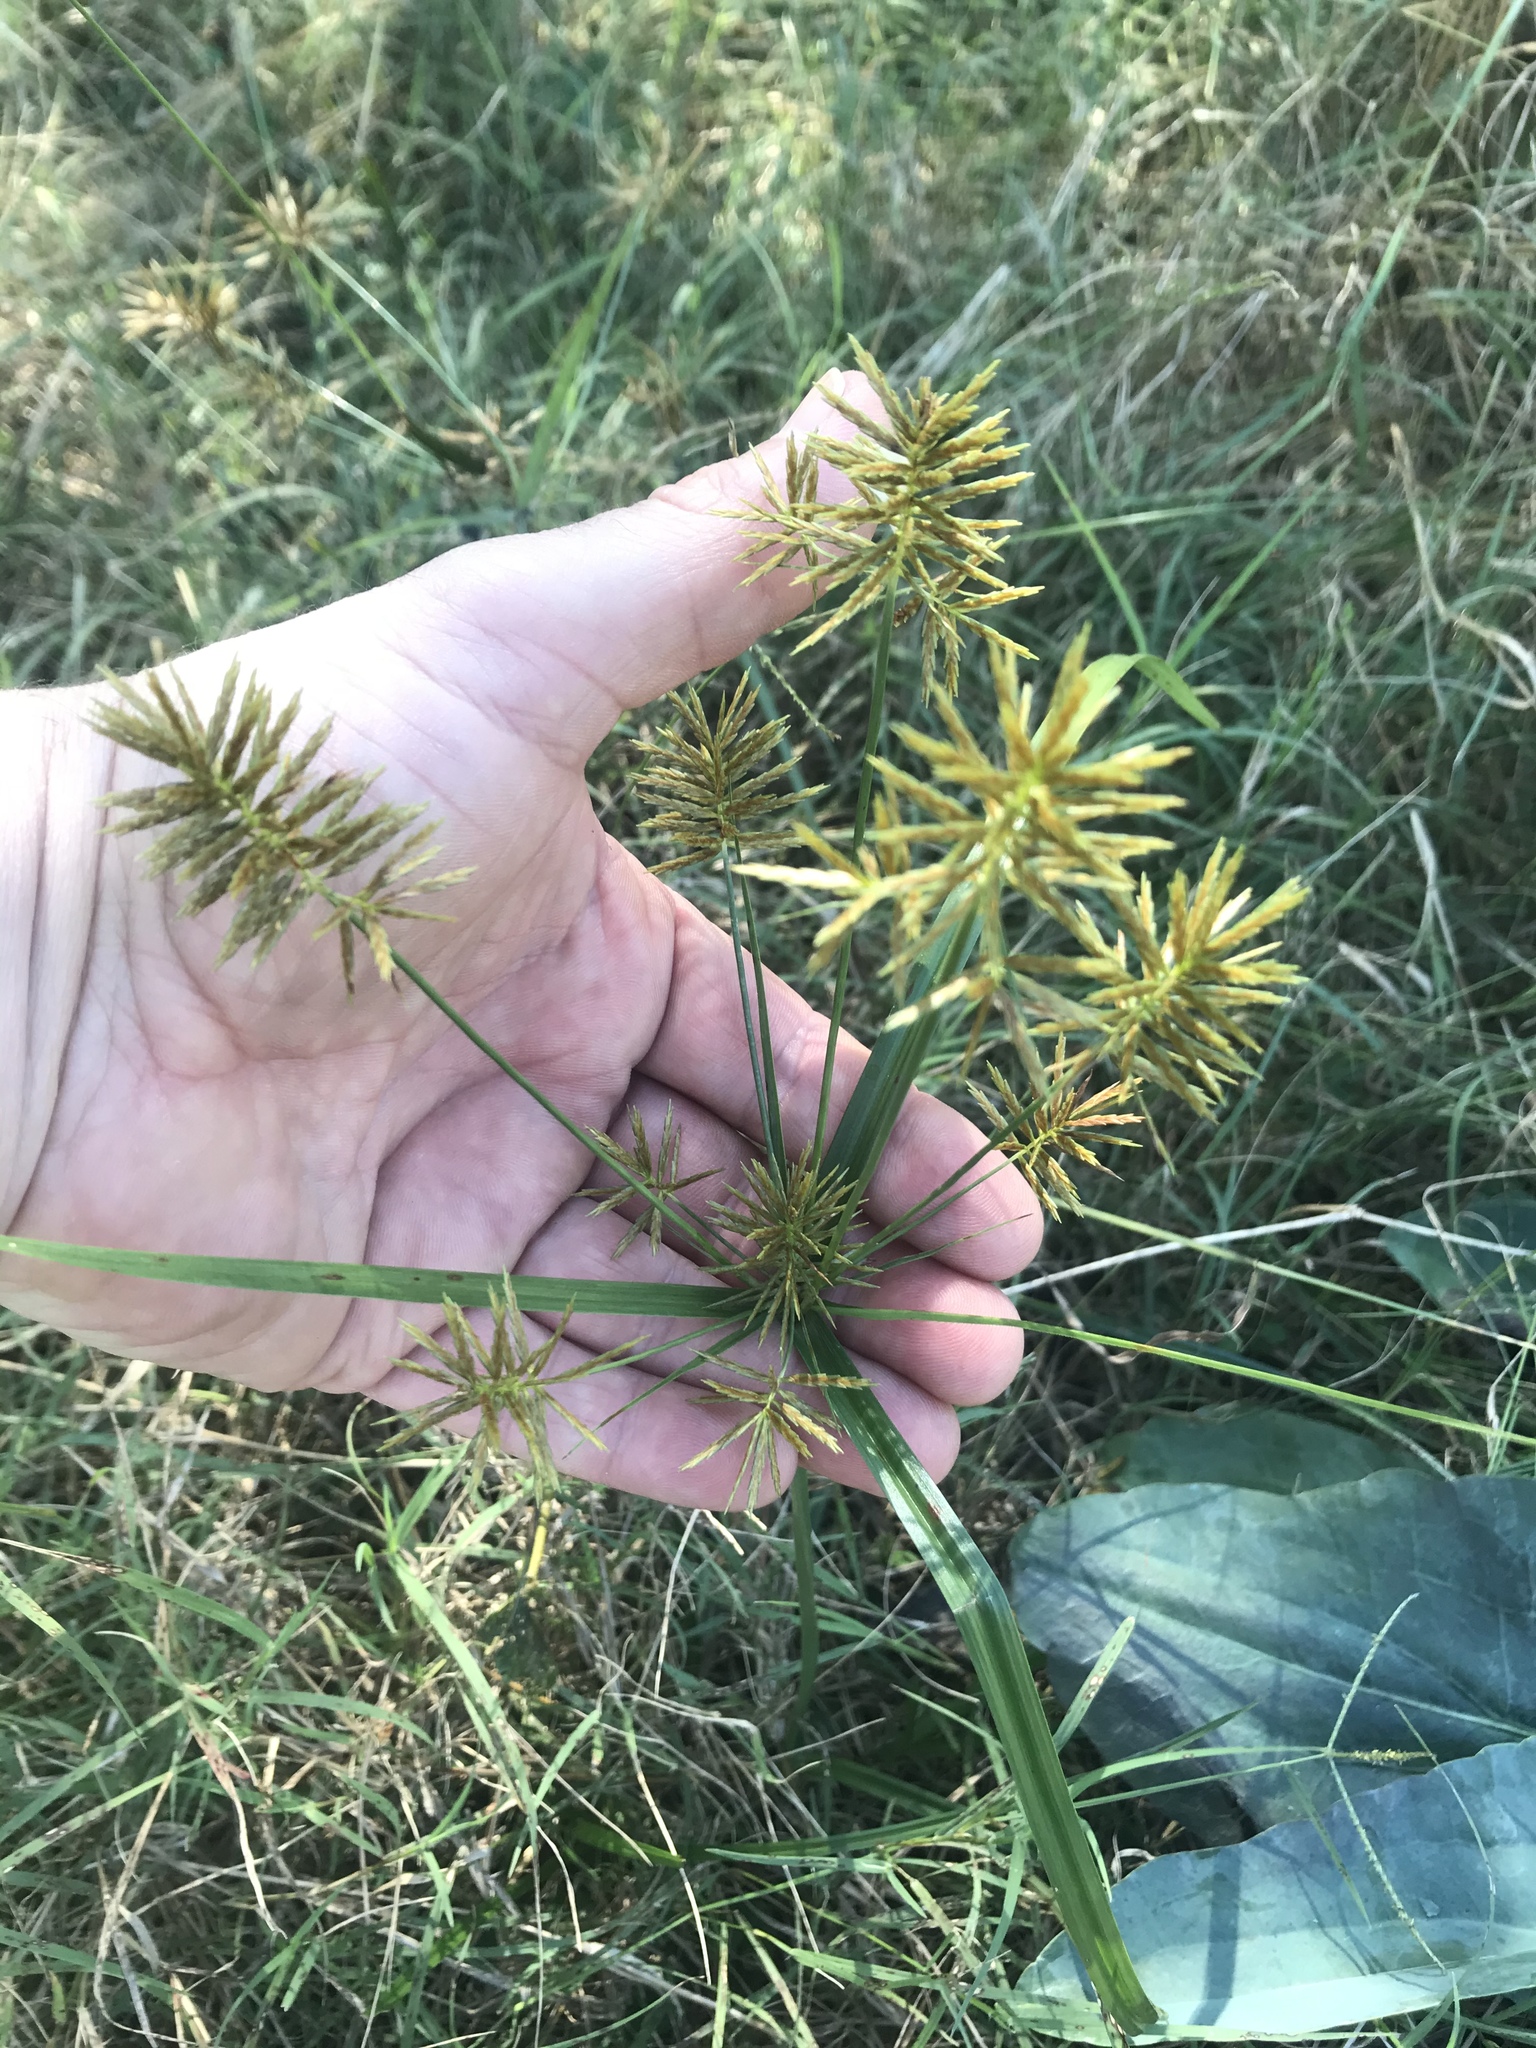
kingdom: Plantae
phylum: Tracheophyta
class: Liliopsida
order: Poales
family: Cyperaceae
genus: Cyperus
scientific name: Cyperus strigosus
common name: False nutsedge
